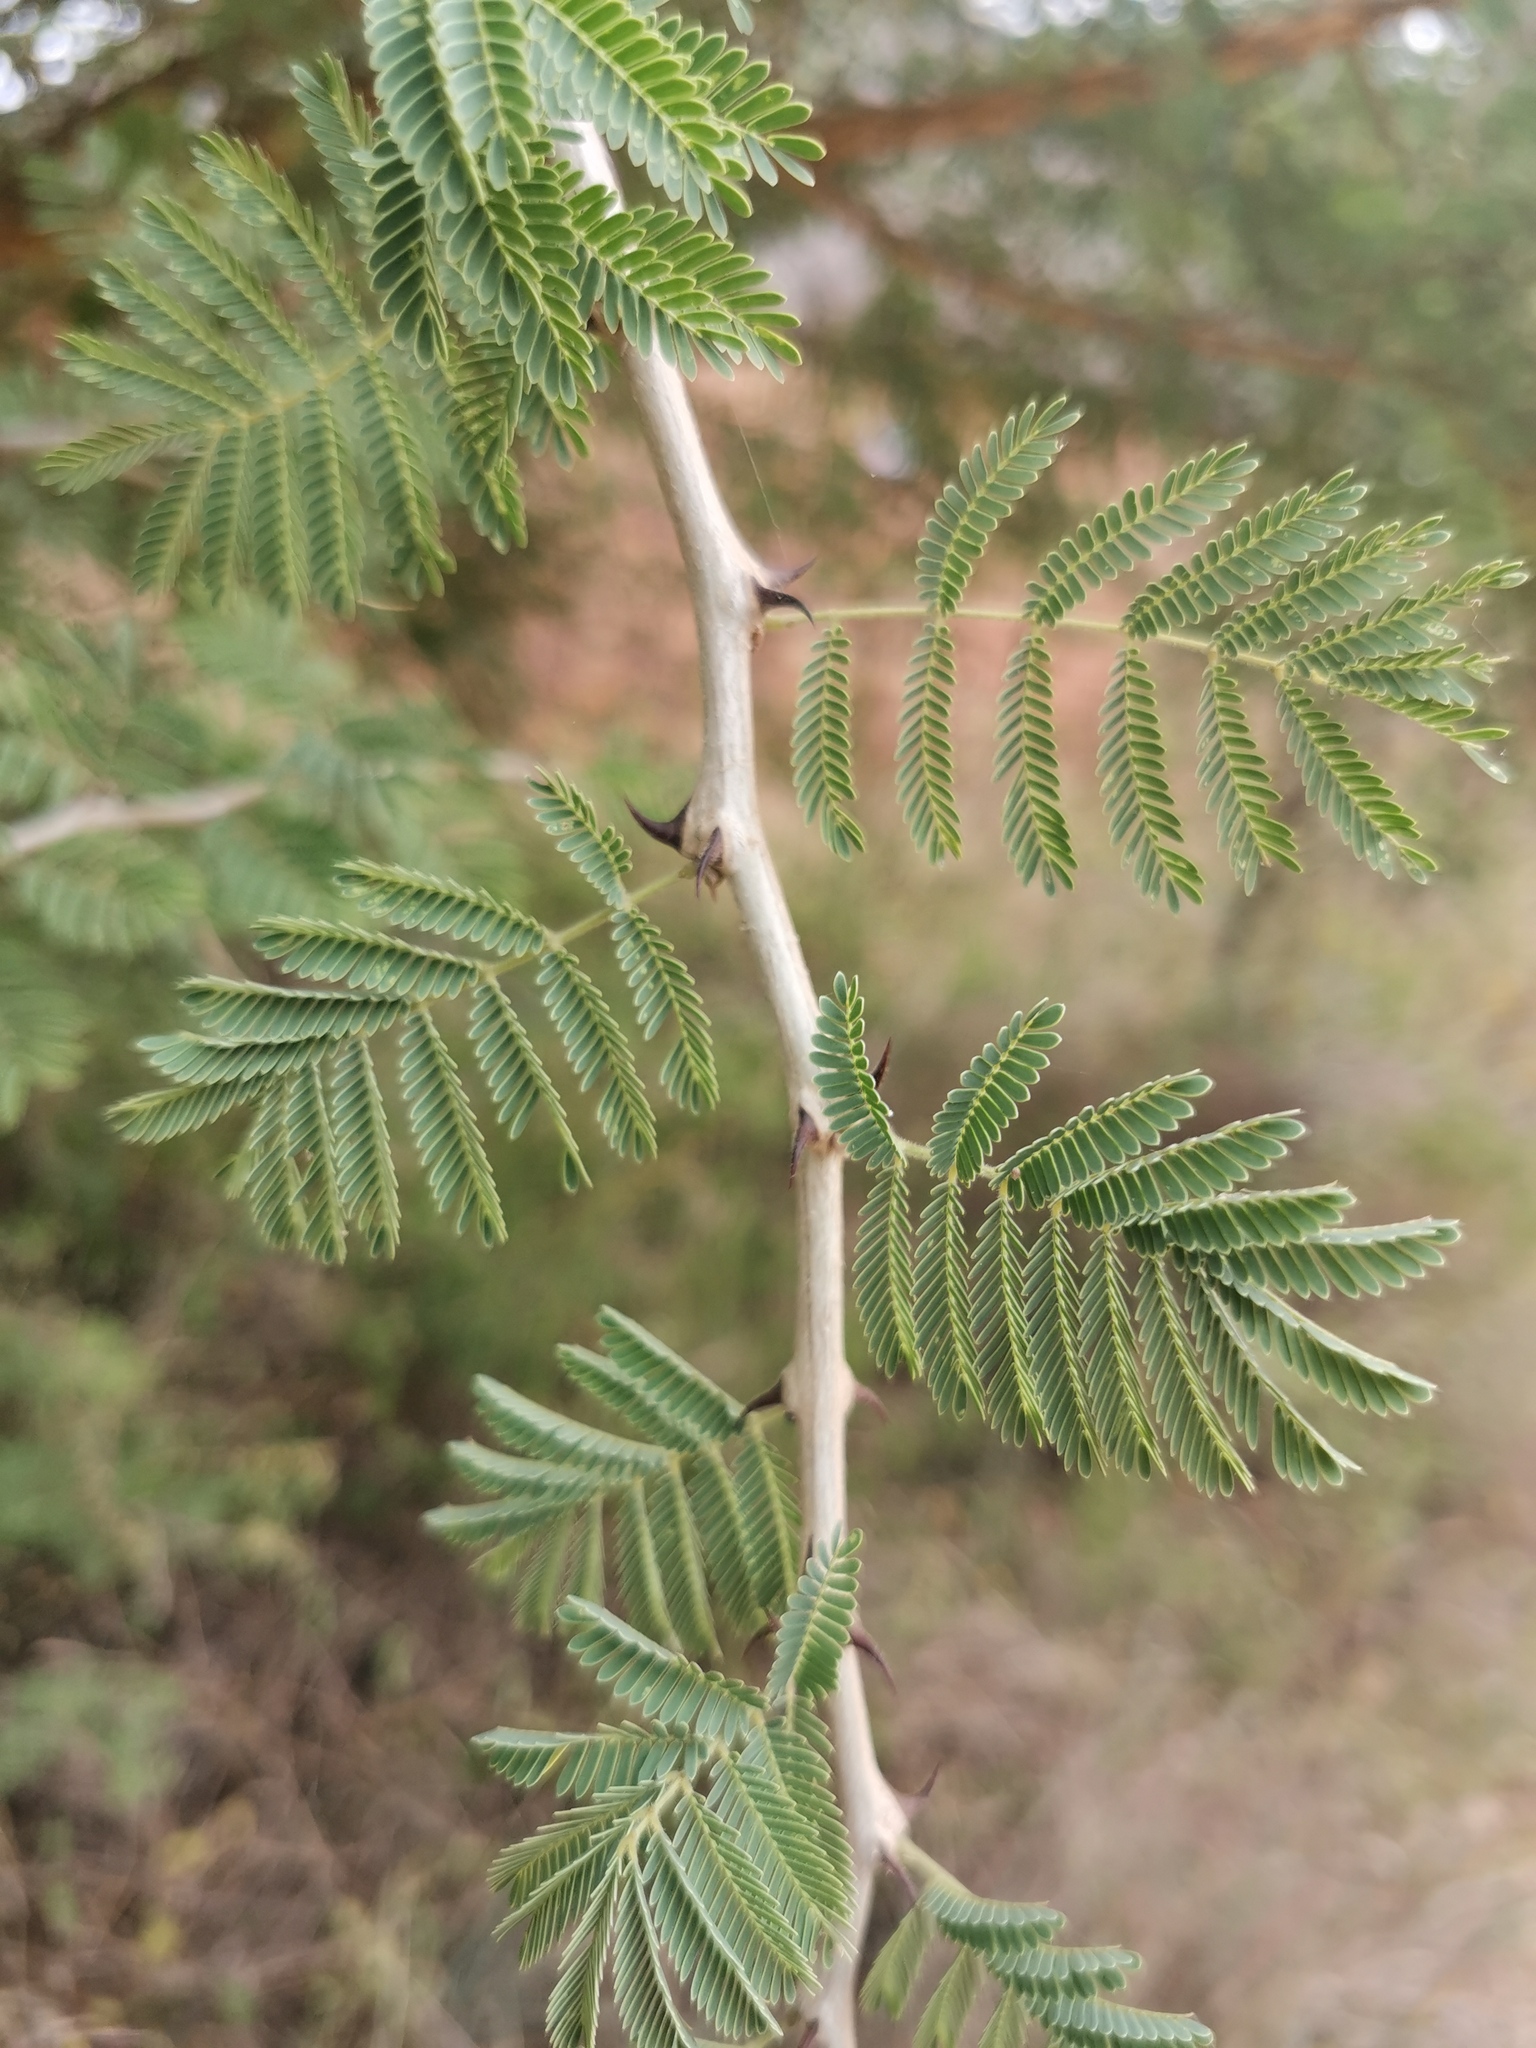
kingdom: Plantae
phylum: Tracheophyta
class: Magnoliopsida
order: Fabales
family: Fabaceae
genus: Senegalia
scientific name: Senegalia senegal
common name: Senegal-gum
